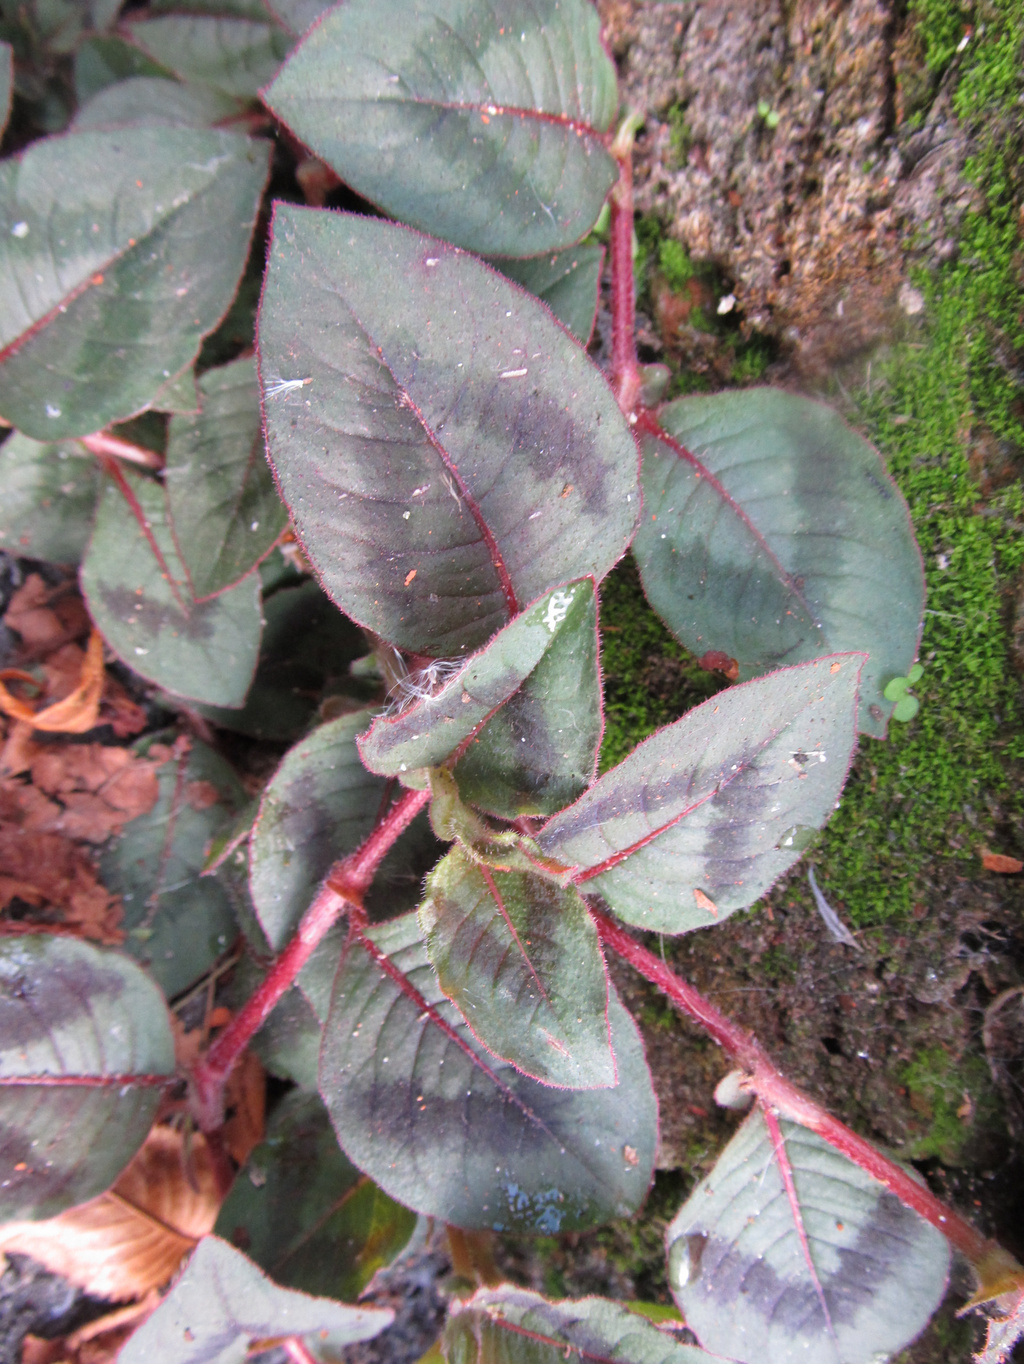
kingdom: Plantae
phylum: Tracheophyta
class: Magnoliopsida
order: Caryophyllales
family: Polygonaceae
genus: Persicaria
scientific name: Persicaria capitata
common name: Pinkhead smartweed
